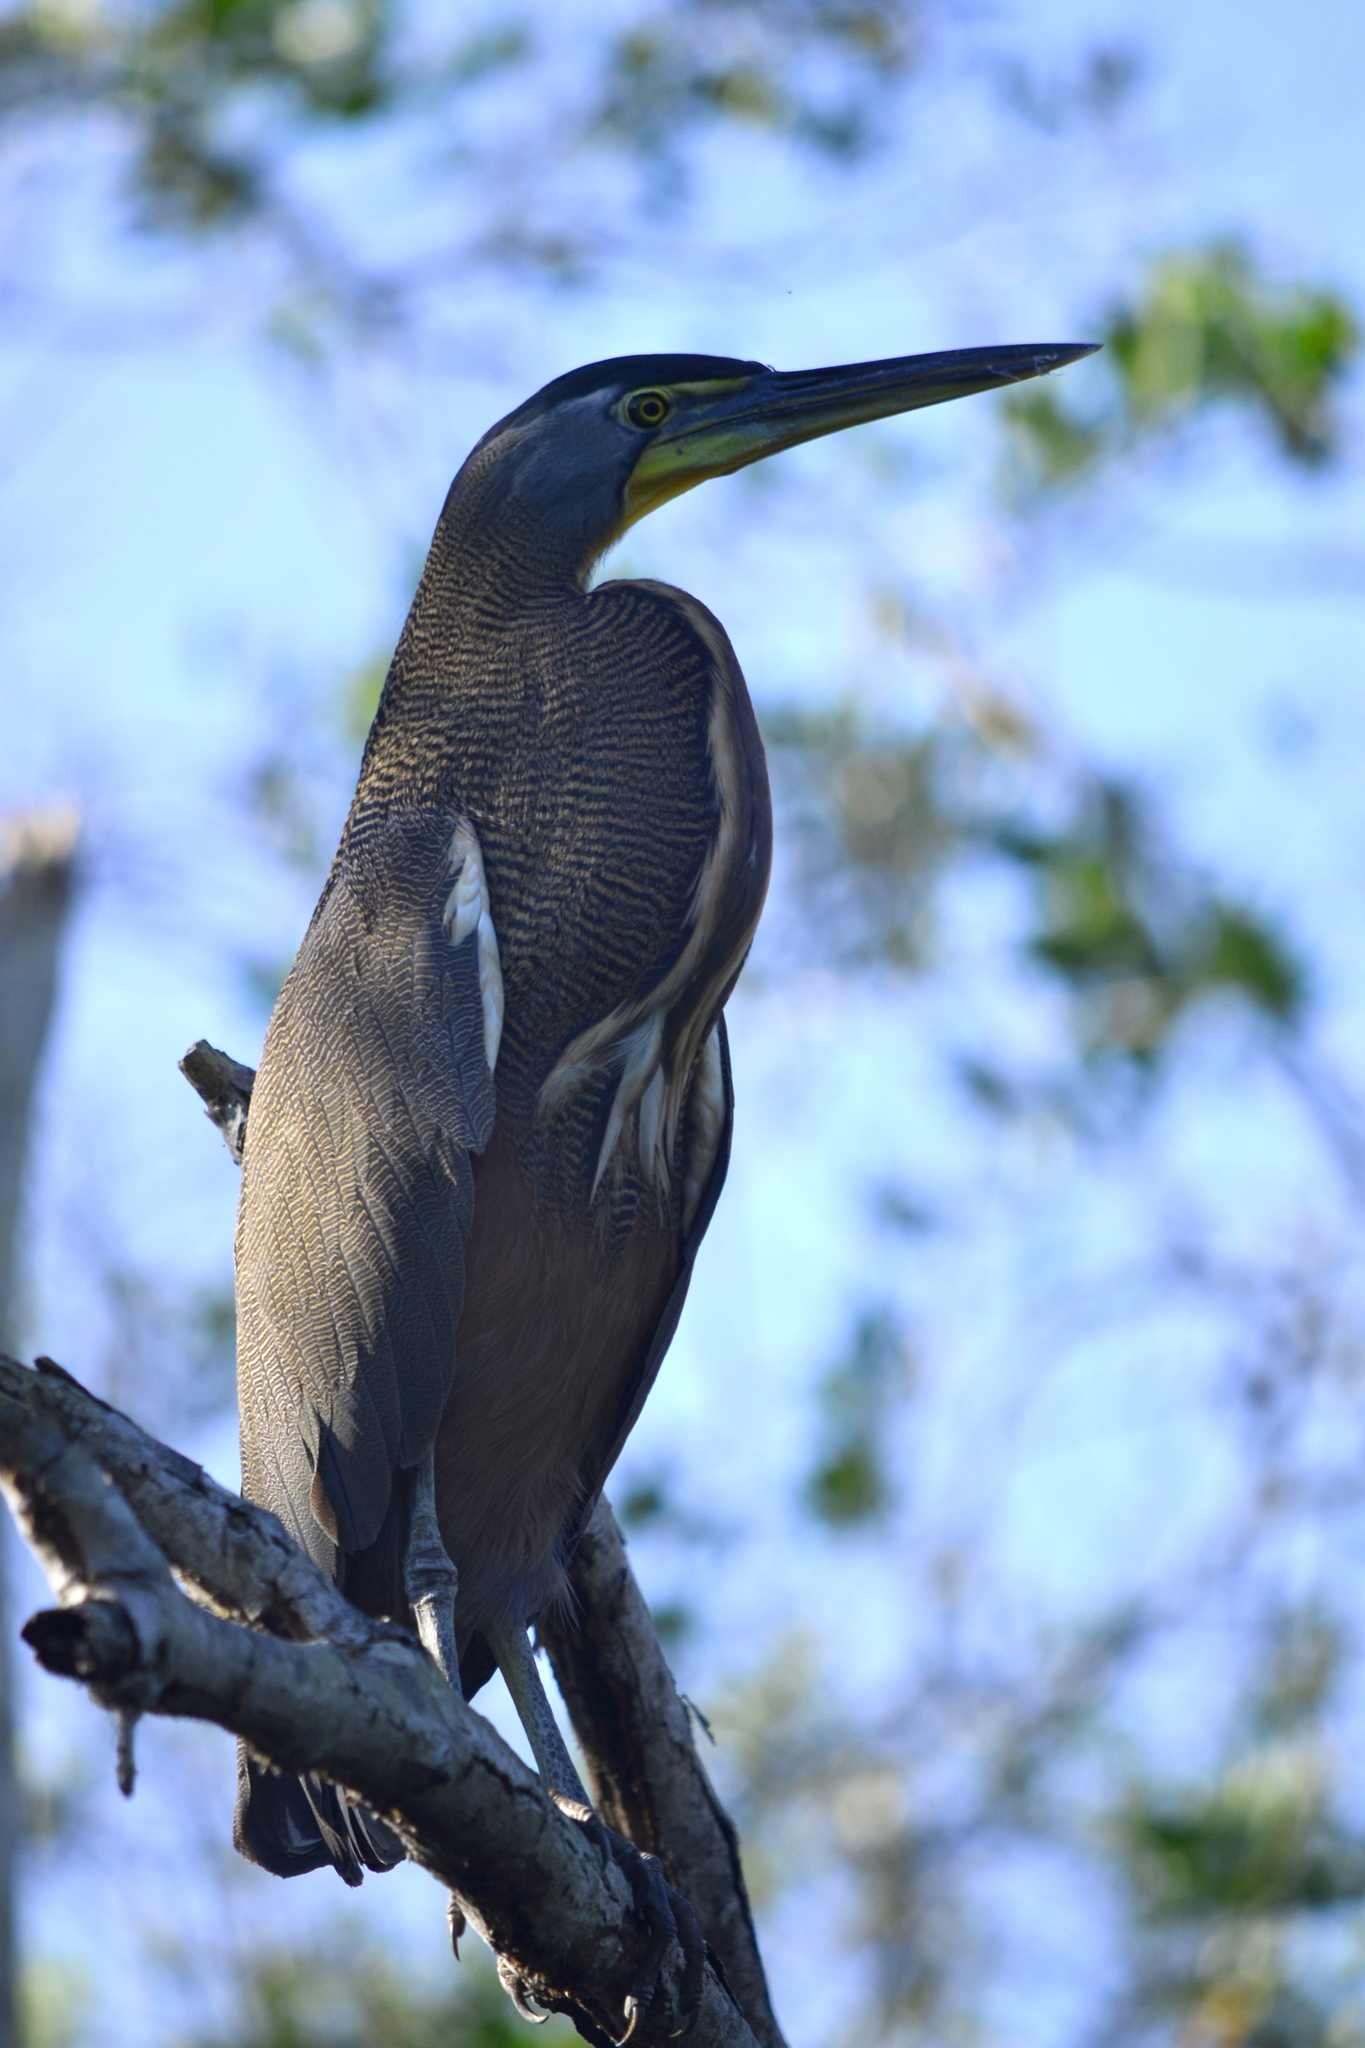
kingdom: Animalia
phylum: Chordata
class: Aves
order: Pelecaniformes
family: Ardeidae
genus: Tigrisoma
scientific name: Tigrisoma mexicanum
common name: Bare-throated tiger-heron
